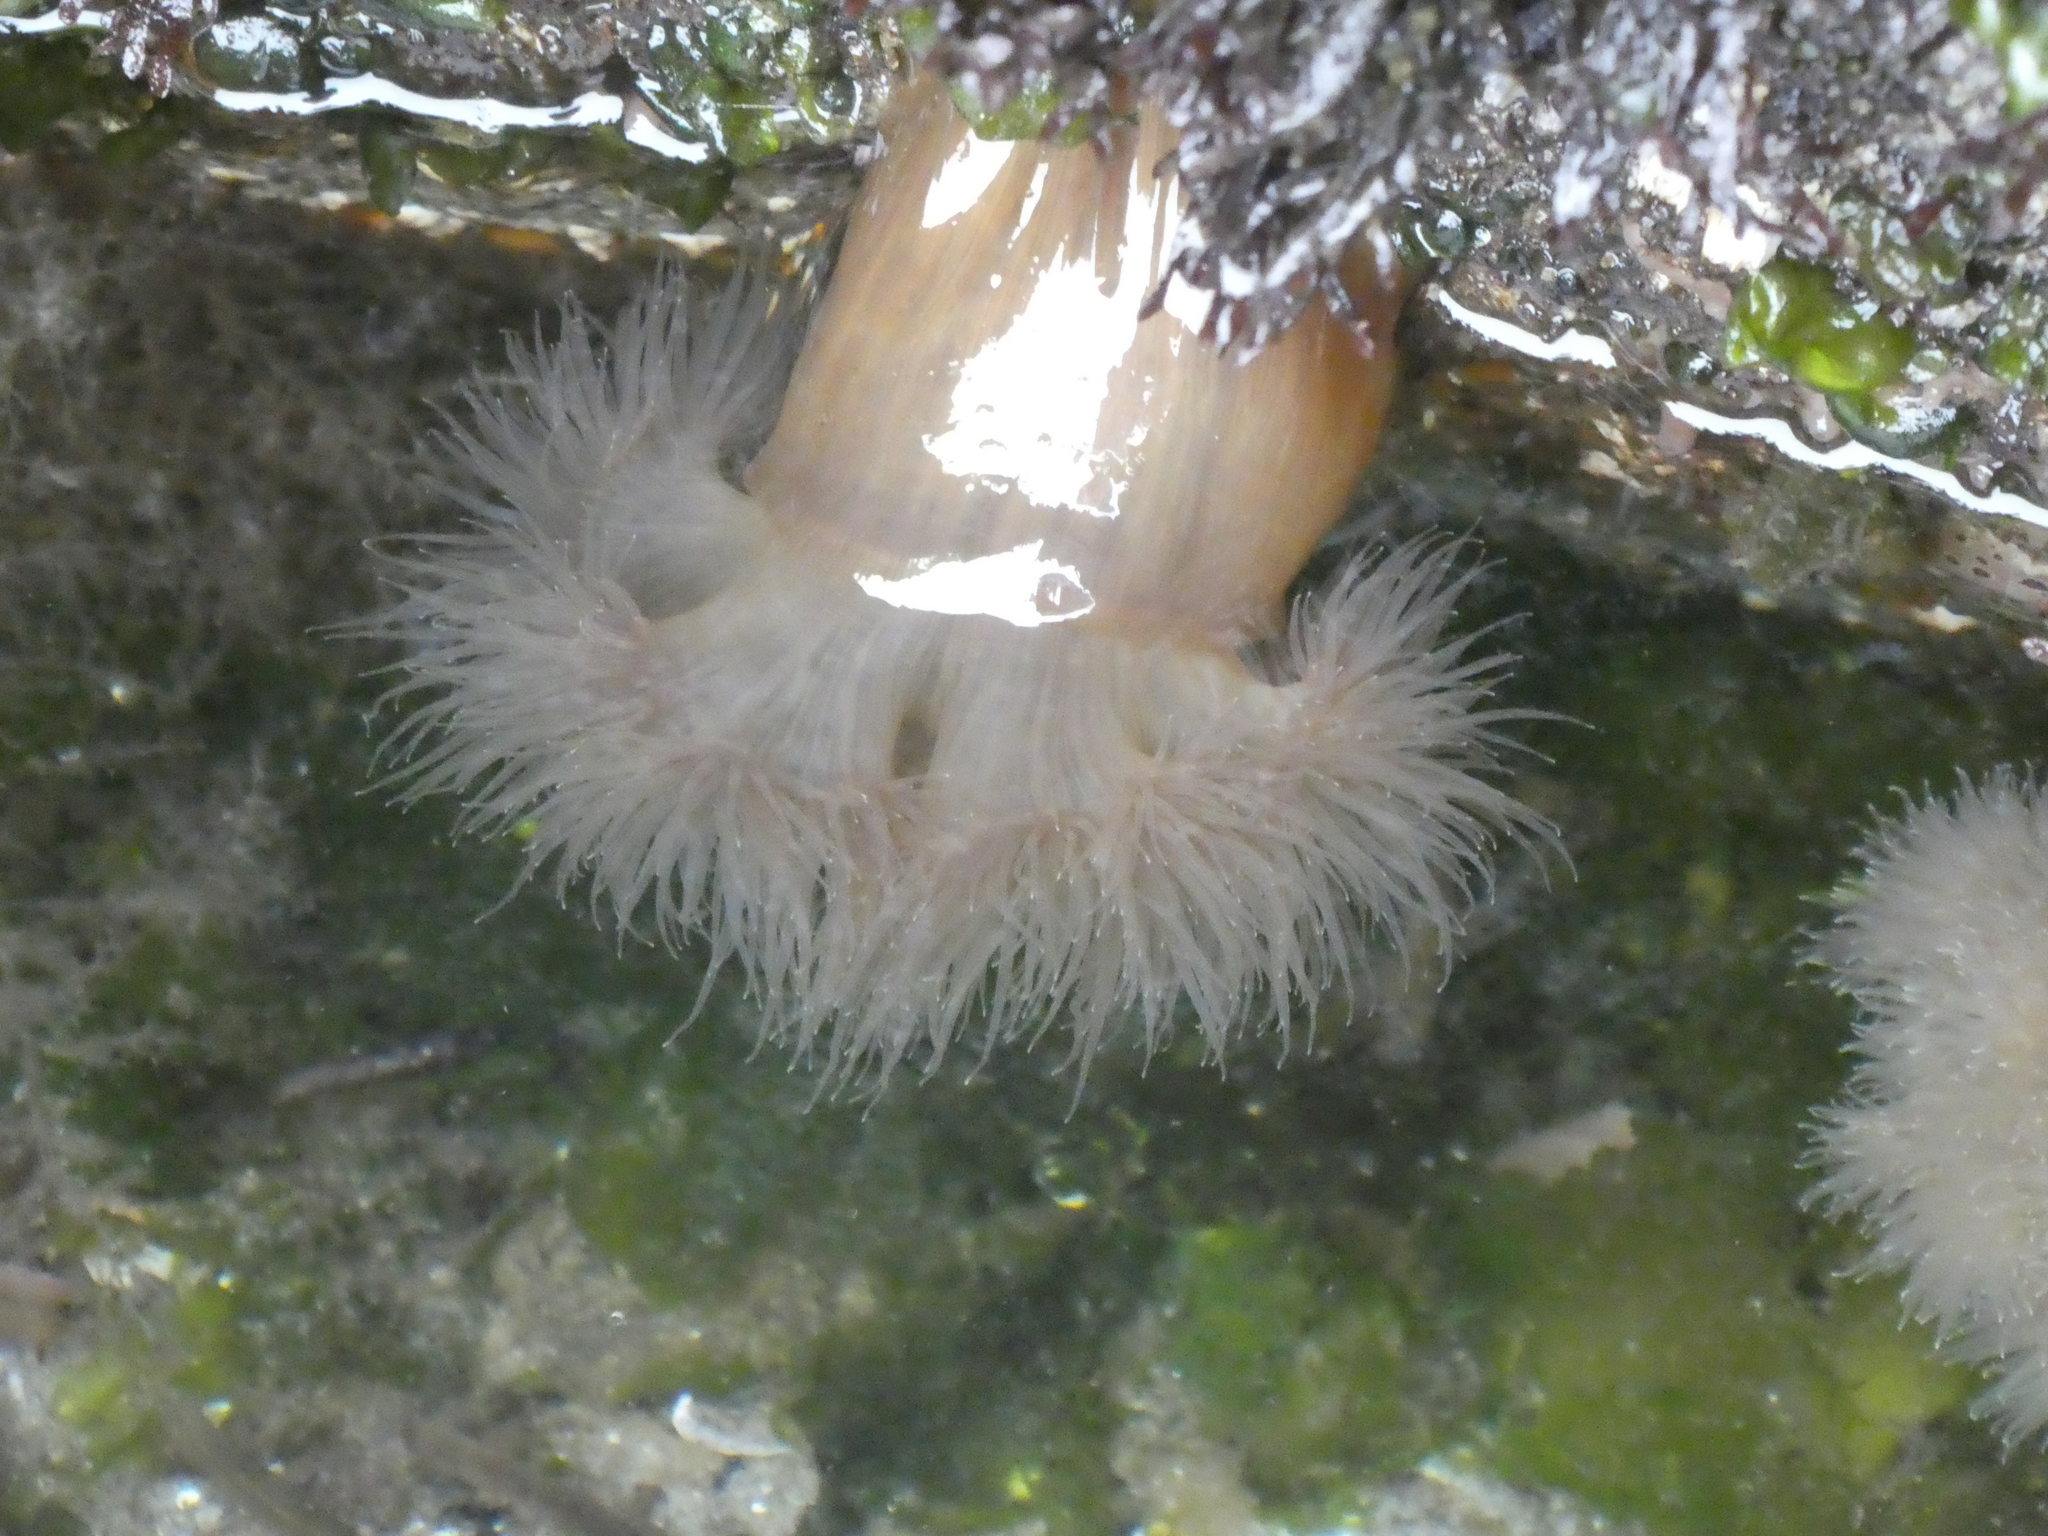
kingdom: Animalia
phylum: Cnidaria
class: Anthozoa
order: Actiniaria
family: Metridiidae
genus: Metridium
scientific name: Metridium senile
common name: Clonal plumose anemone
